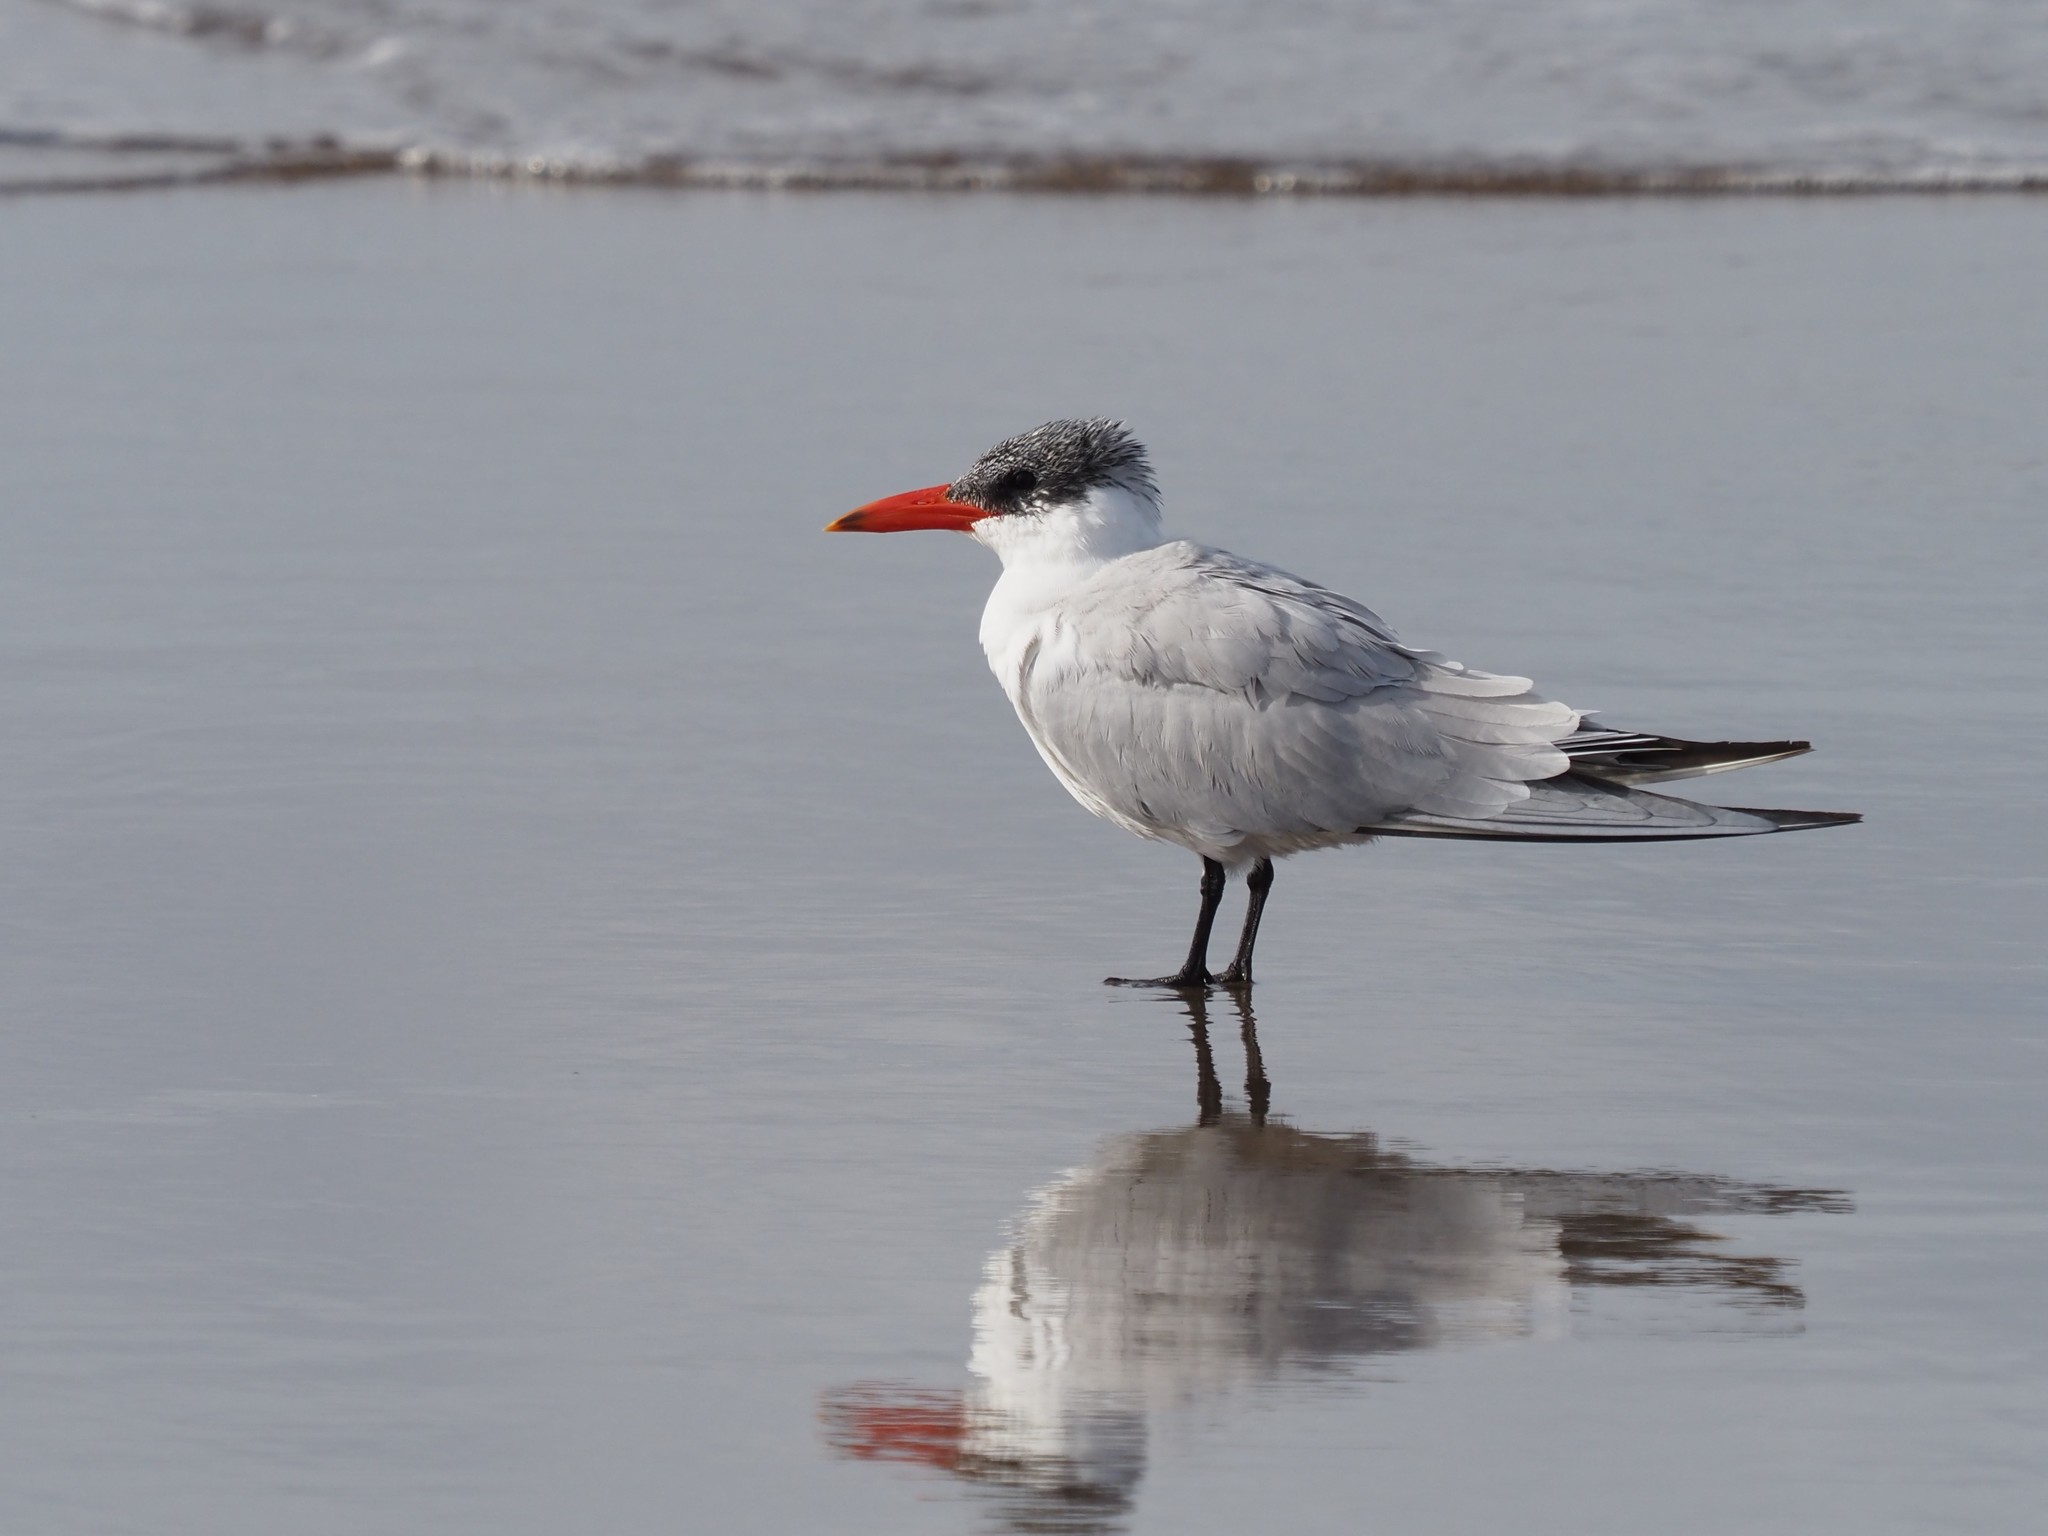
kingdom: Animalia
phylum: Chordata
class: Aves
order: Charadriiformes
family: Laridae
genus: Hydroprogne
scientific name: Hydroprogne caspia
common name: Caspian tern
